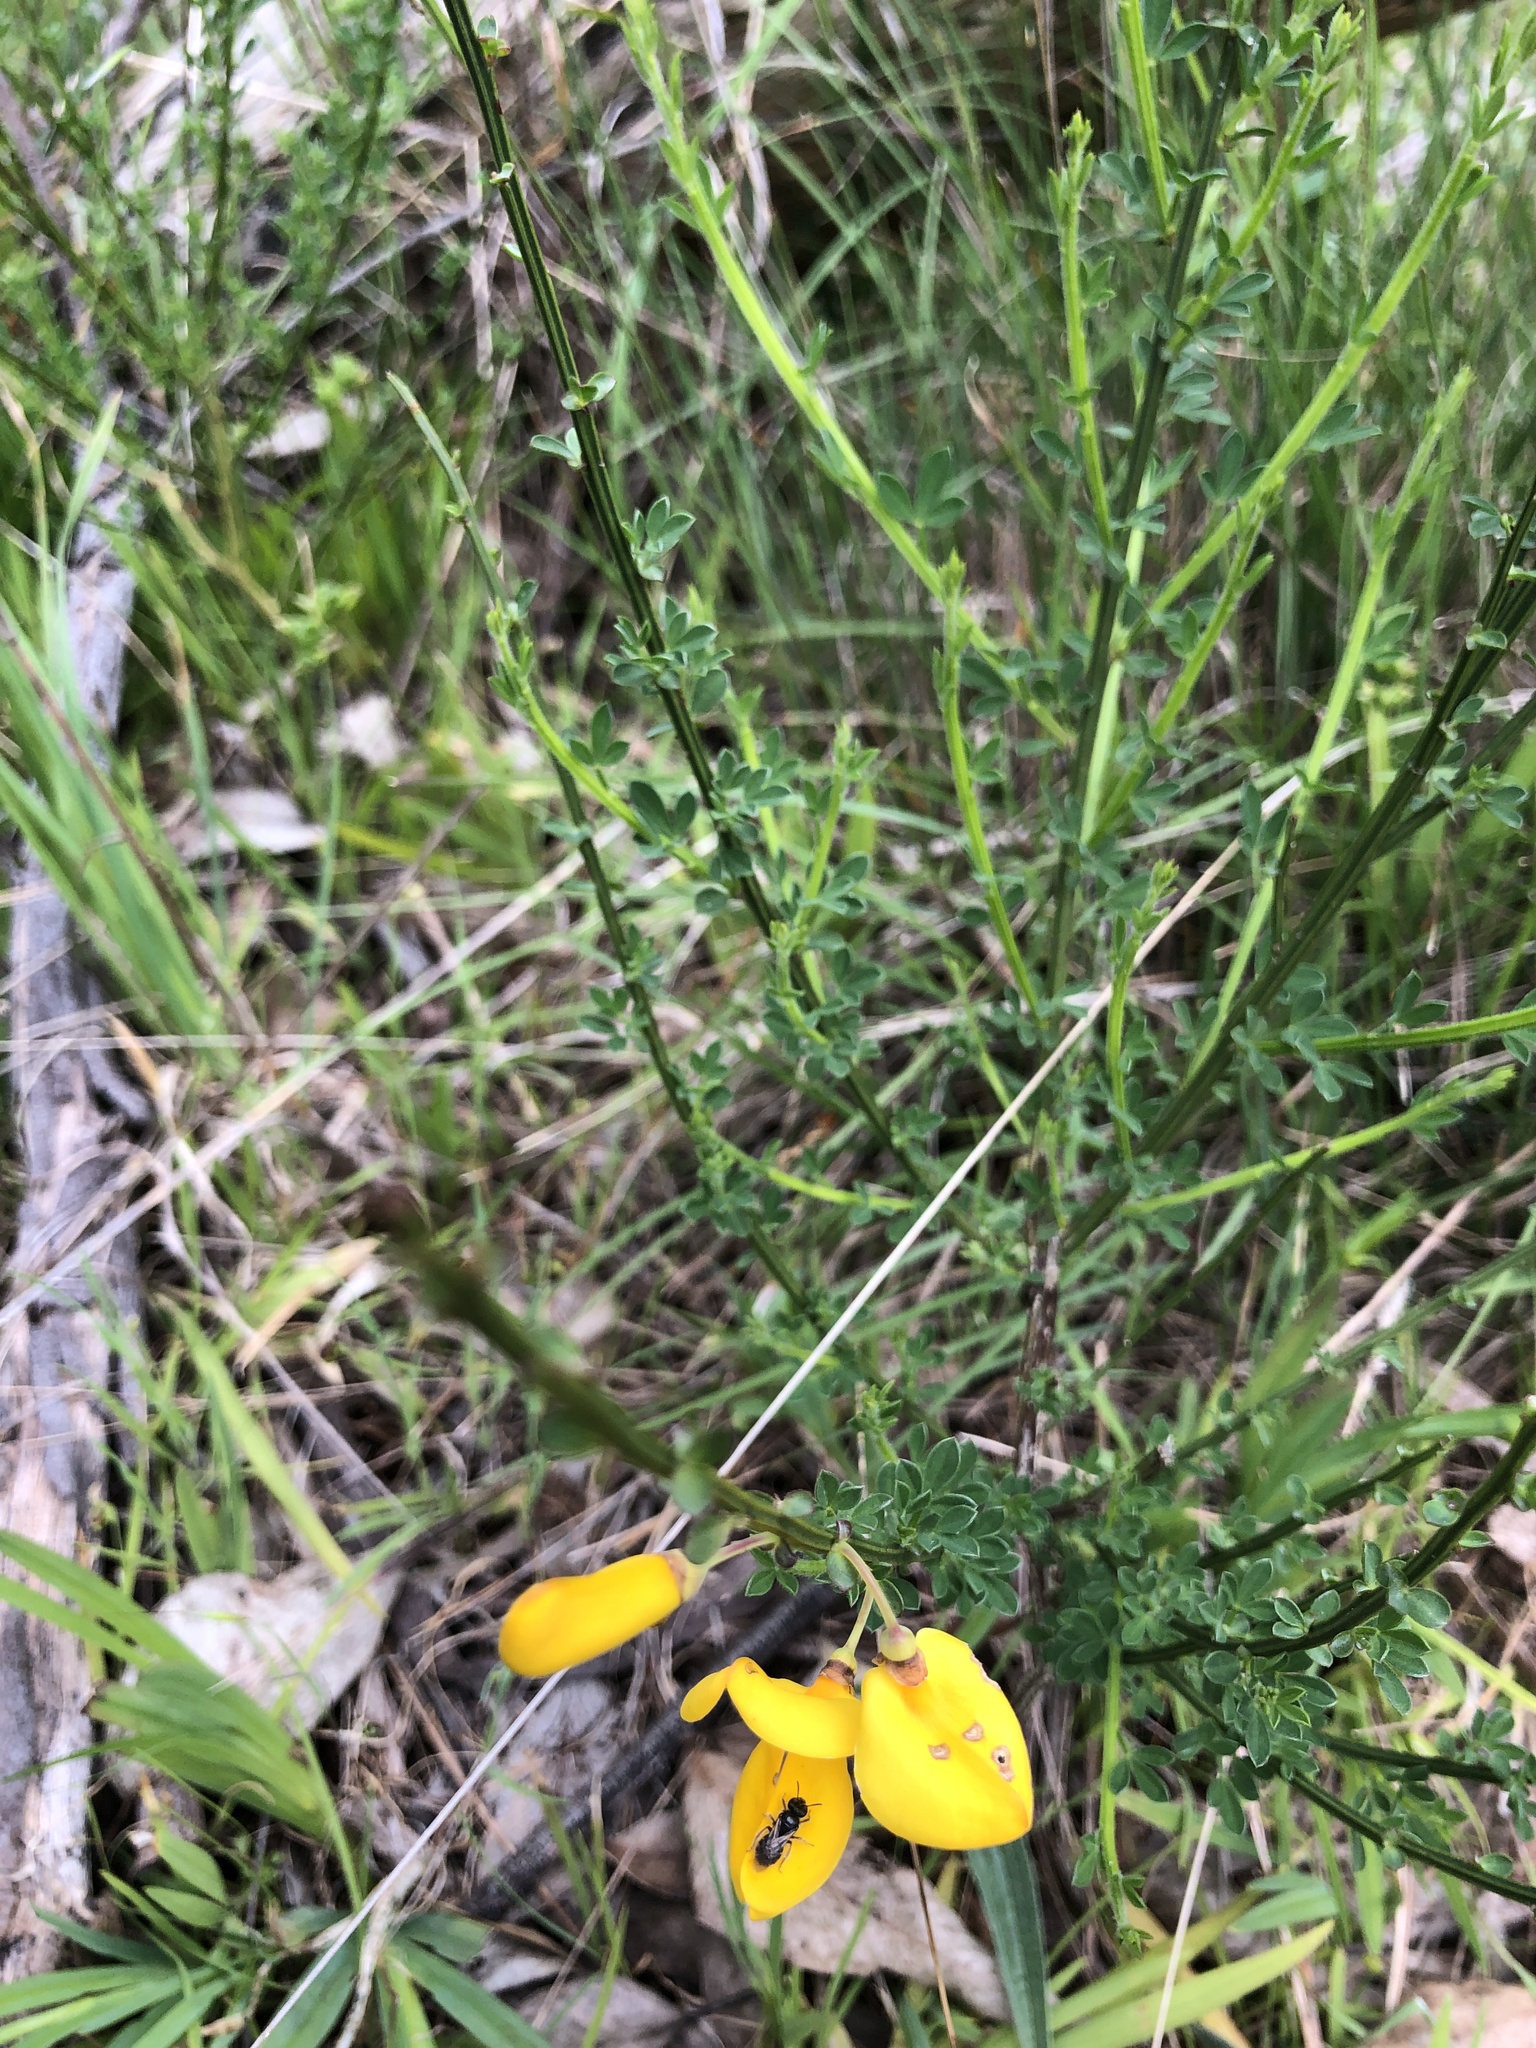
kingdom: Plantae
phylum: Tracheophyta
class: Magnoliopsida
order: Fabales
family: Fabaceae
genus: Cytisus
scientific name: Cytisus scoparius
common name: Scotch broom
